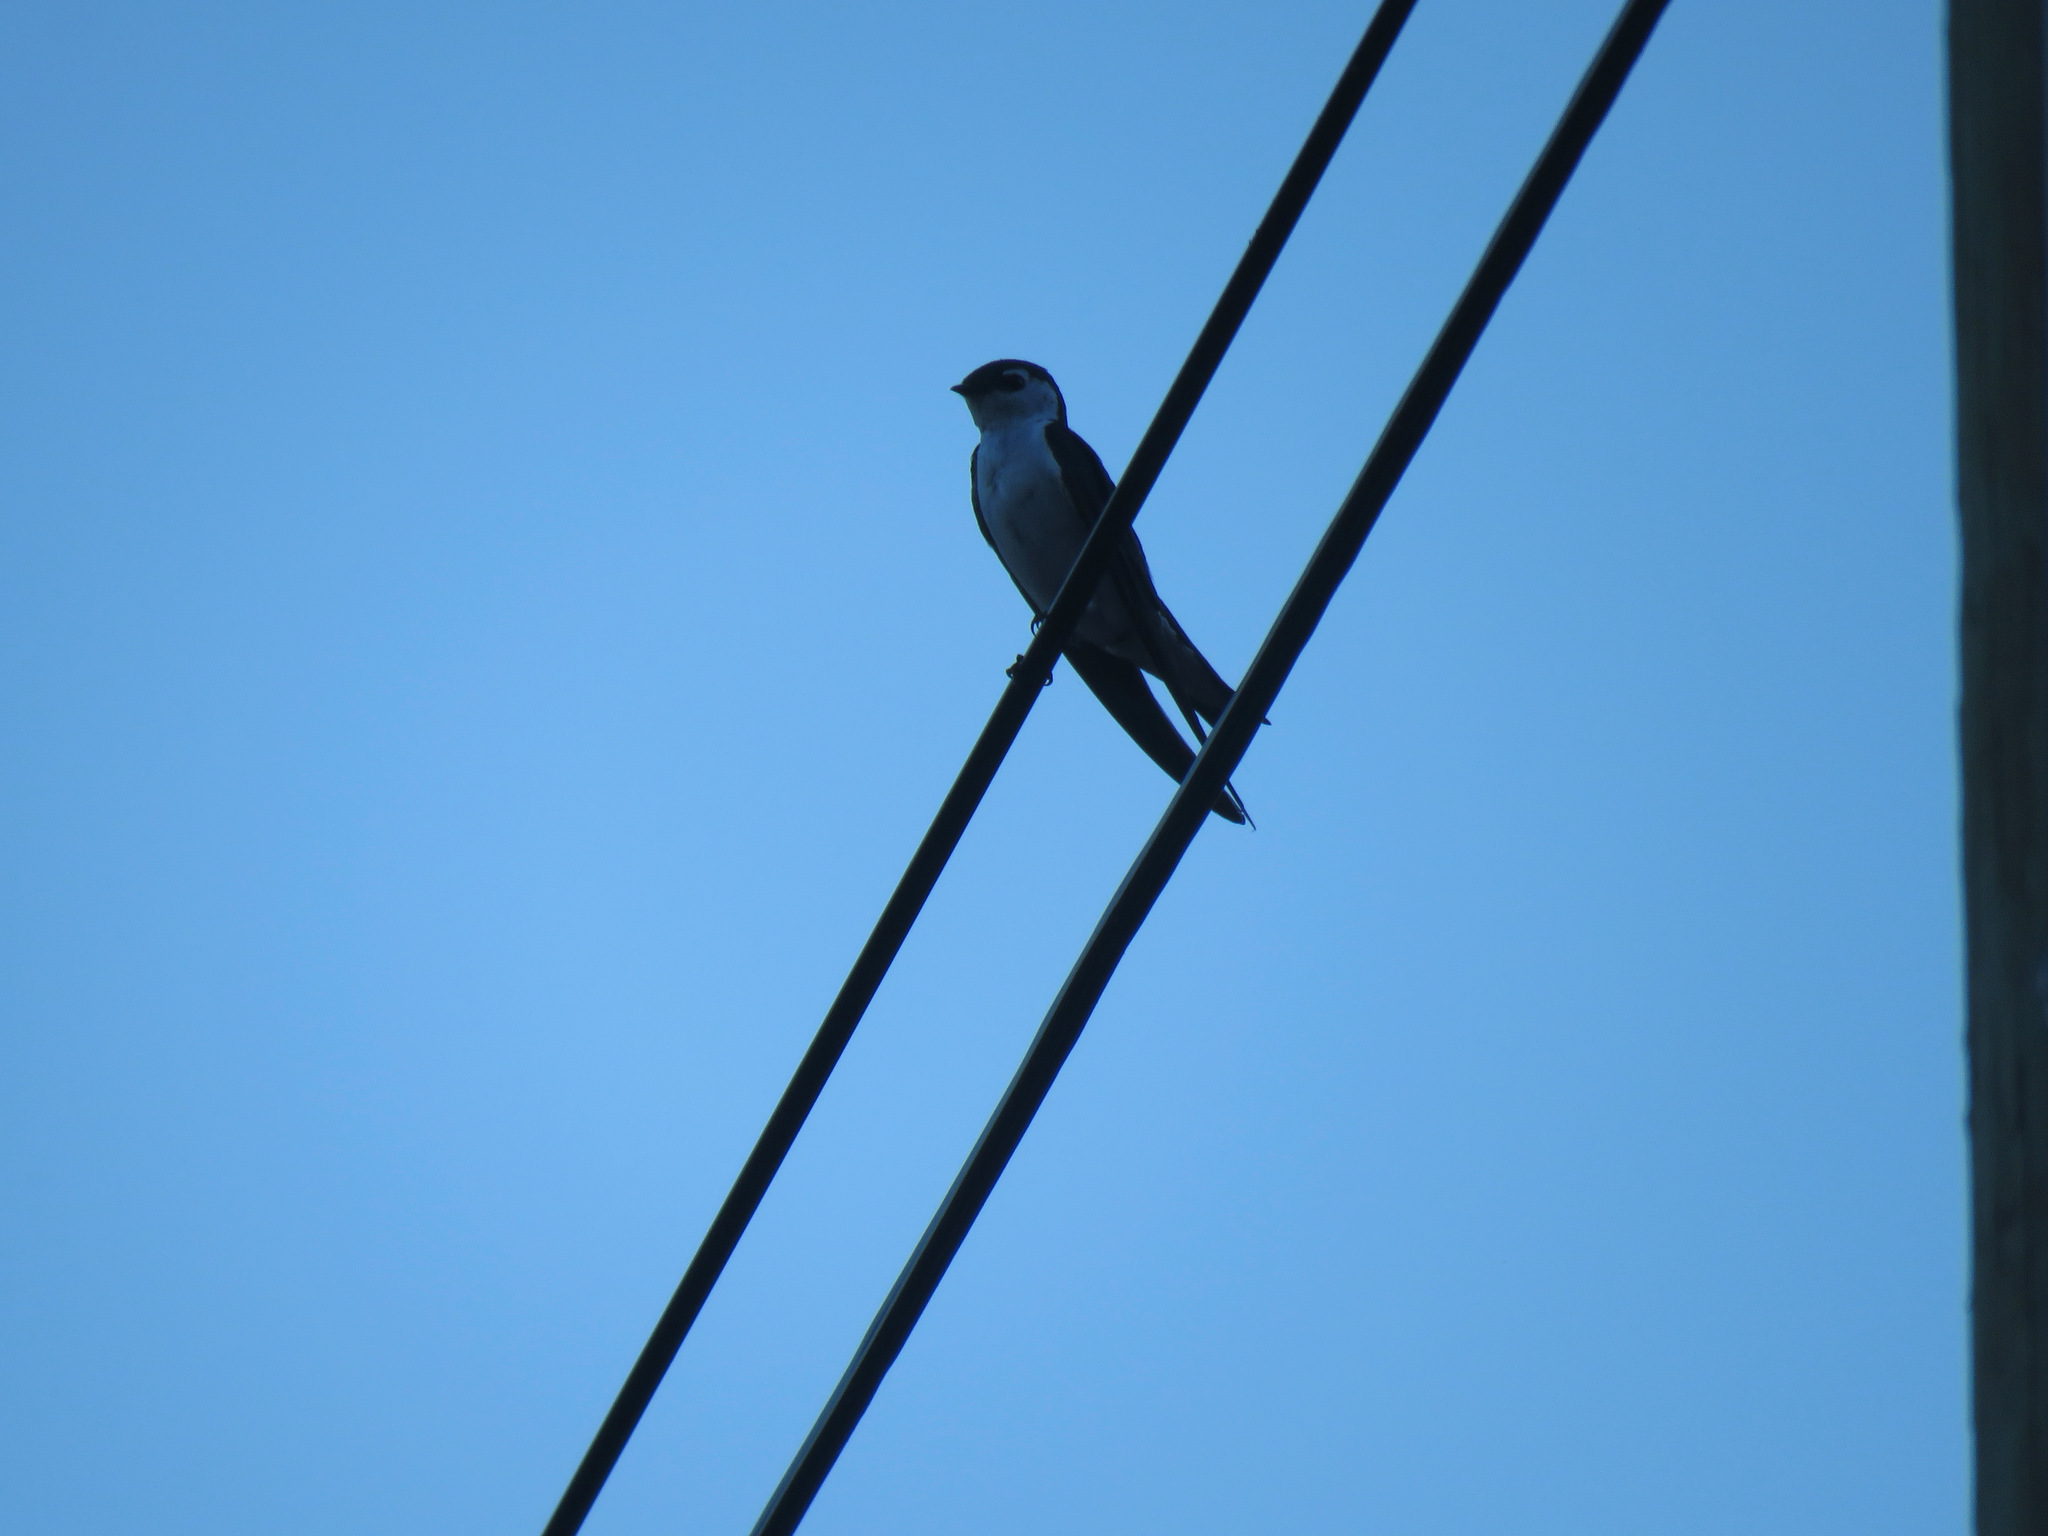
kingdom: Animalia
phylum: Chordata
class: Aves
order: Passeriformes
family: Hirundinidae
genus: Tachycineta
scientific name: Tachycineta thalassina
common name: Violet-green swallow
